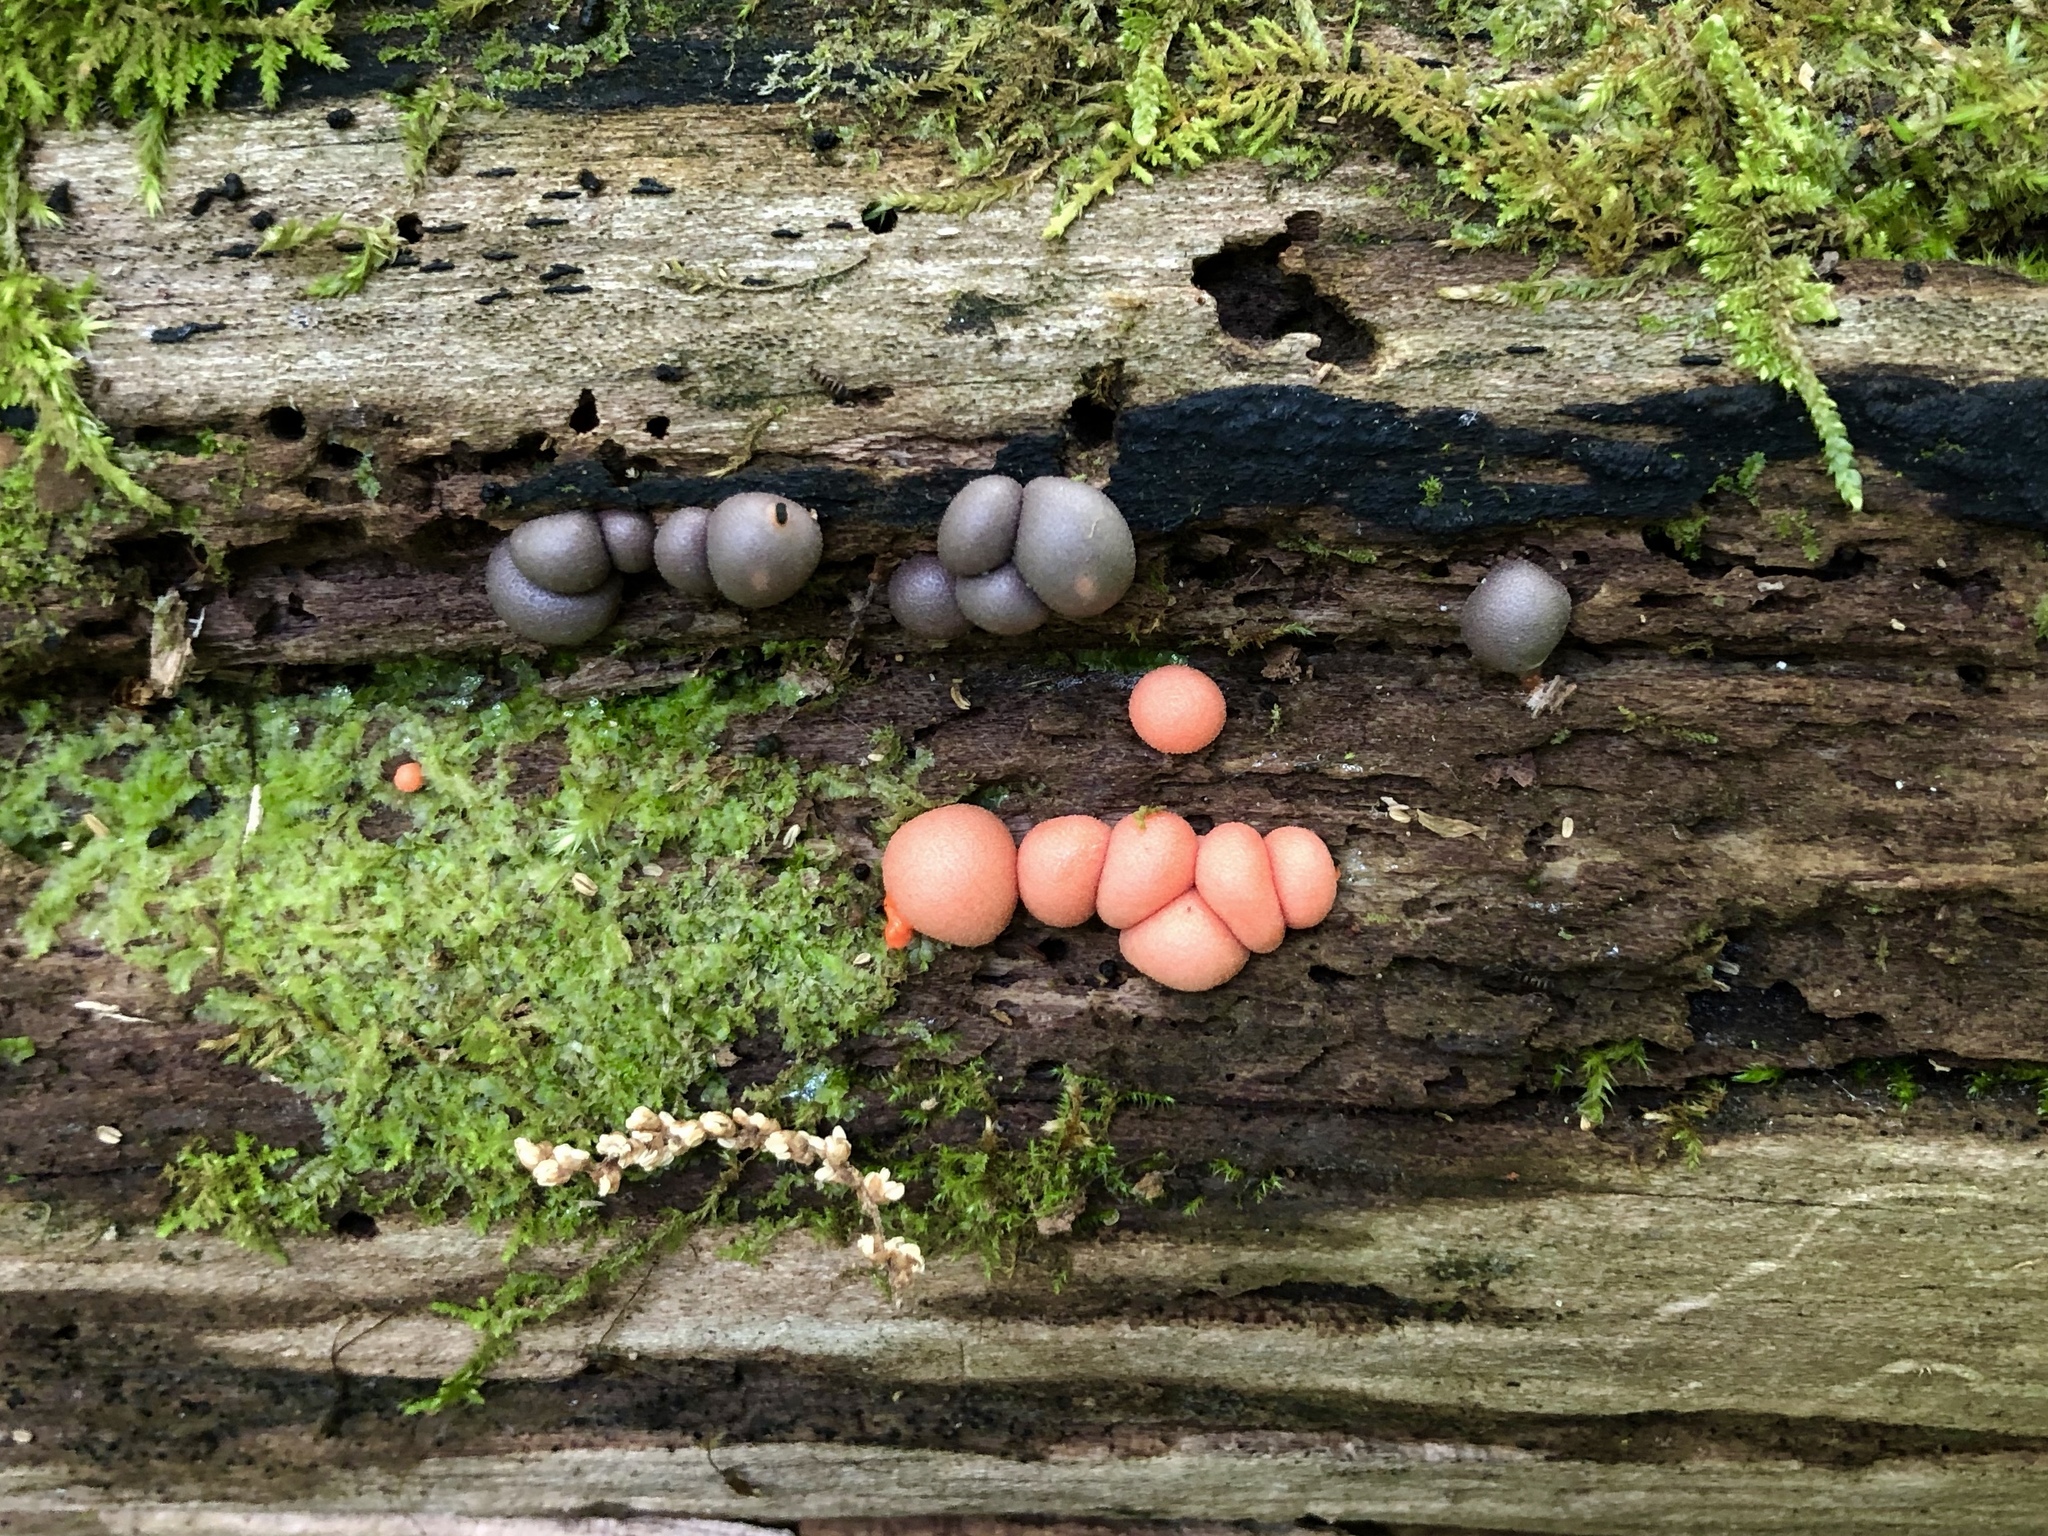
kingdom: Protozoa
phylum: Mycetozoa
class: Myxomycetes
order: Cribrariales
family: Tubiferaceae
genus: Lycogala
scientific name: Lycogala epidendrum
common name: Wolf's milk
